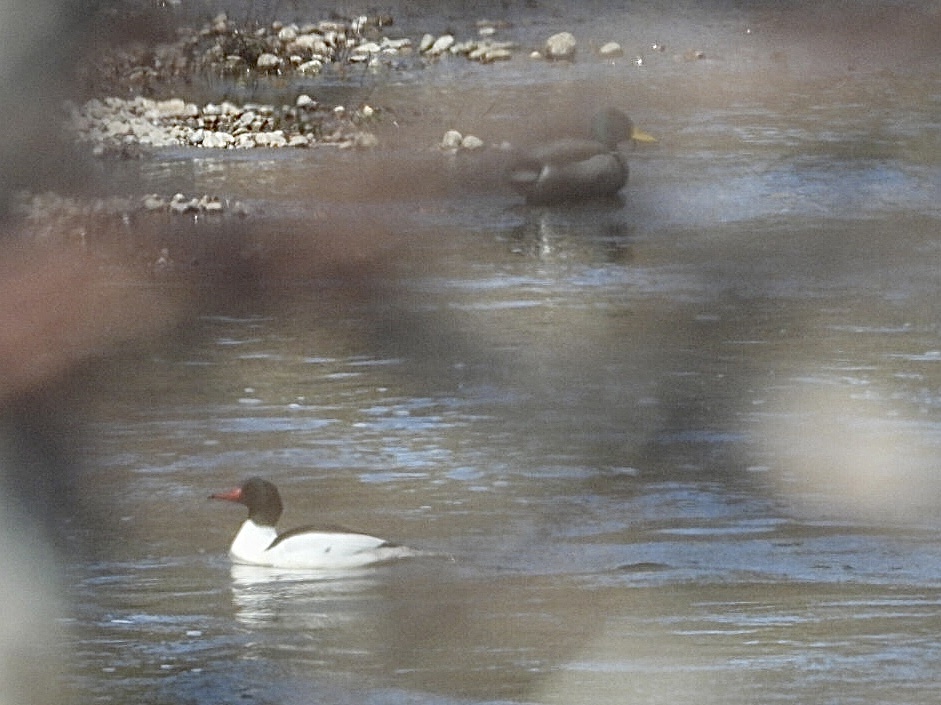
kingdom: Animalia
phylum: Chordata
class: Aves
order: Anseriformes
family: Anatidae
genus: Anas
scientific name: Anas platyrhynchos
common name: Mallard
